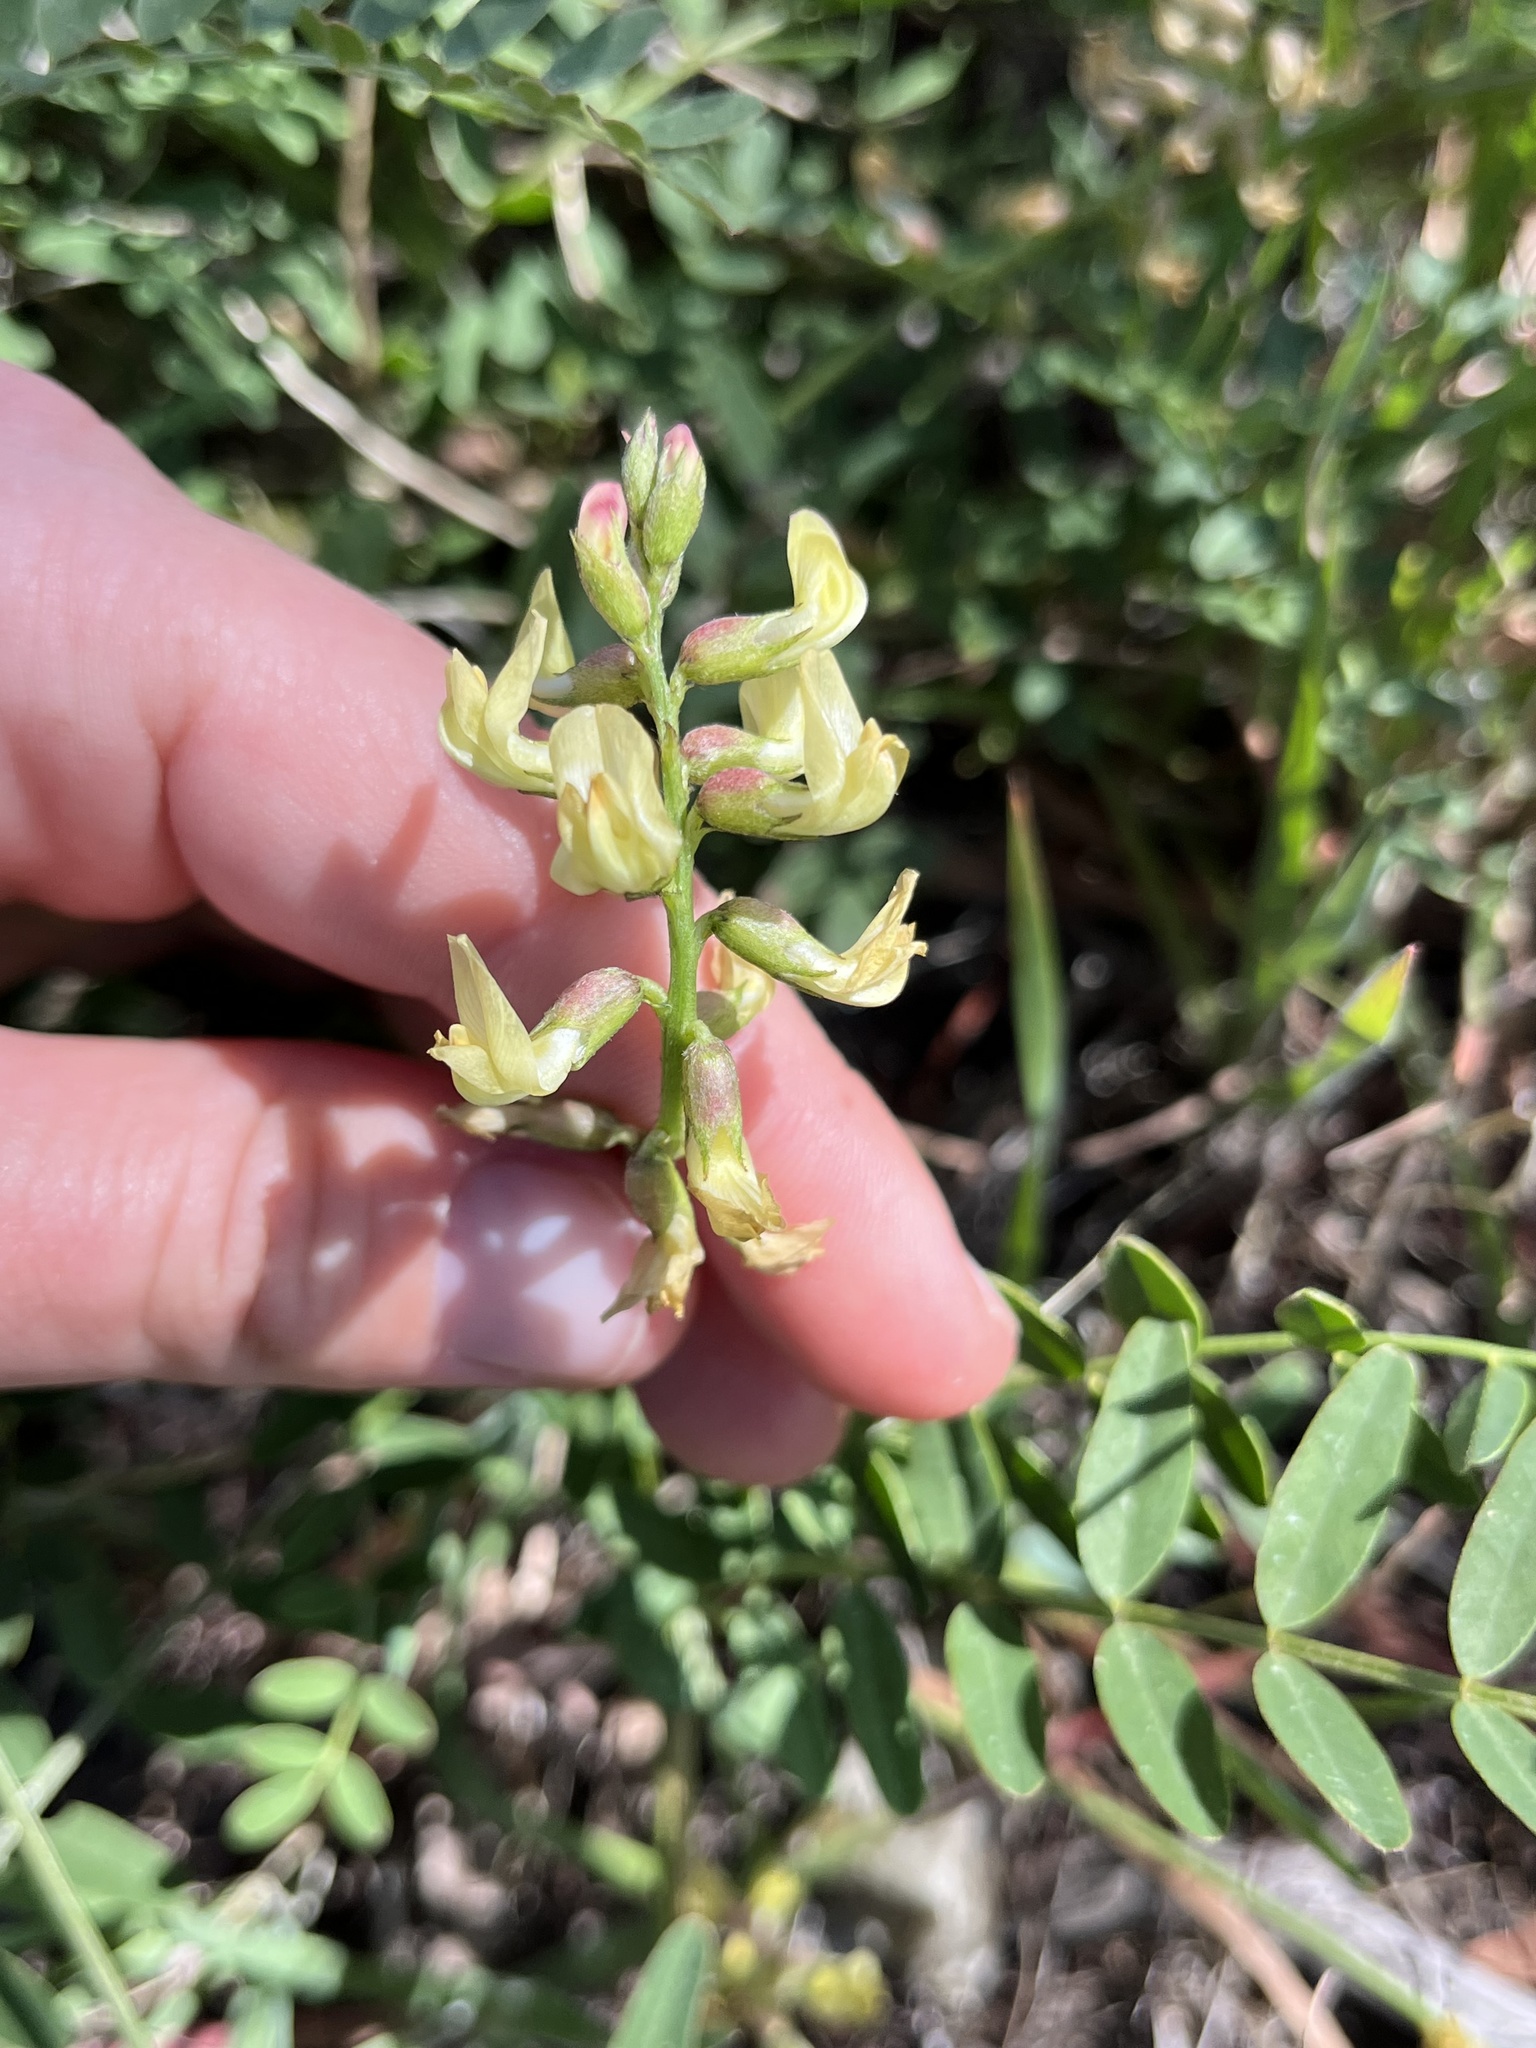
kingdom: Plantae
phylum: Tracheophyta
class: Magnoliopsida
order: Fabales
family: Fabaceae
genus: Astragalus
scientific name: Astragalus douglasii
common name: Jacumba milkvetch
